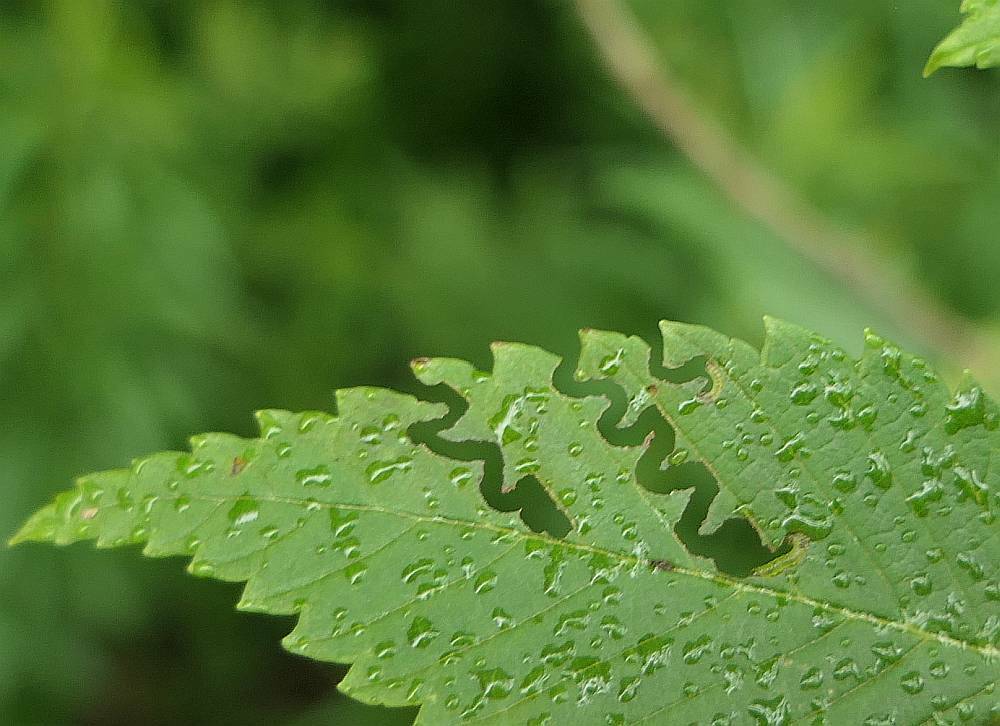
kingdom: Animalia
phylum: Arthropoda
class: Insecta
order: Hymenoptera
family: Argidae
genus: Aproceros
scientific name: Aproceros leucopoda
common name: Zig-zag elm sawfly
